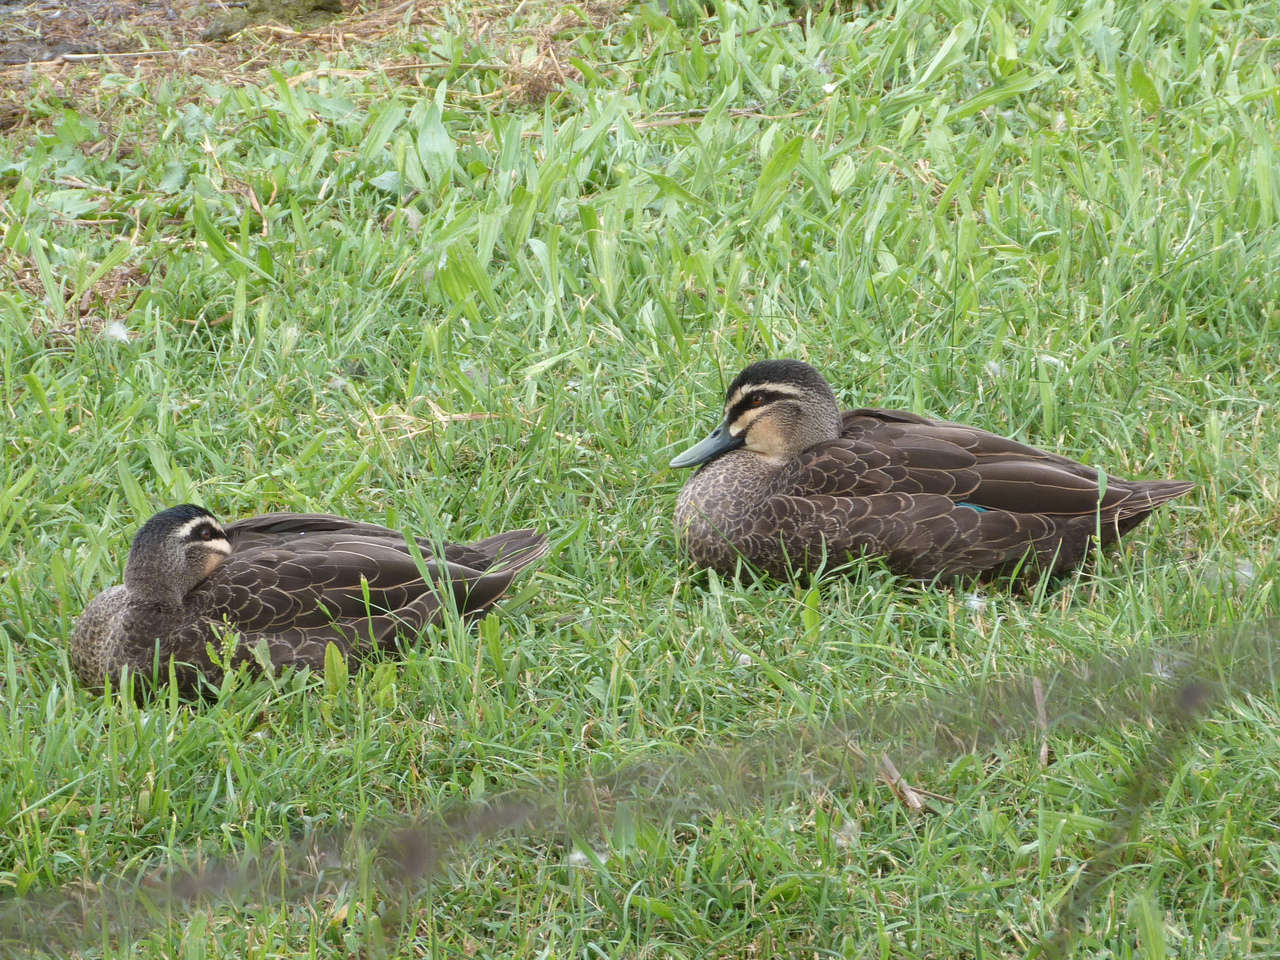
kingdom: Animalia
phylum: Chordata
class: Aves
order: Anseriformes
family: Anatidae
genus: Anas
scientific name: Anas superciliosa
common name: Pacific black duck
